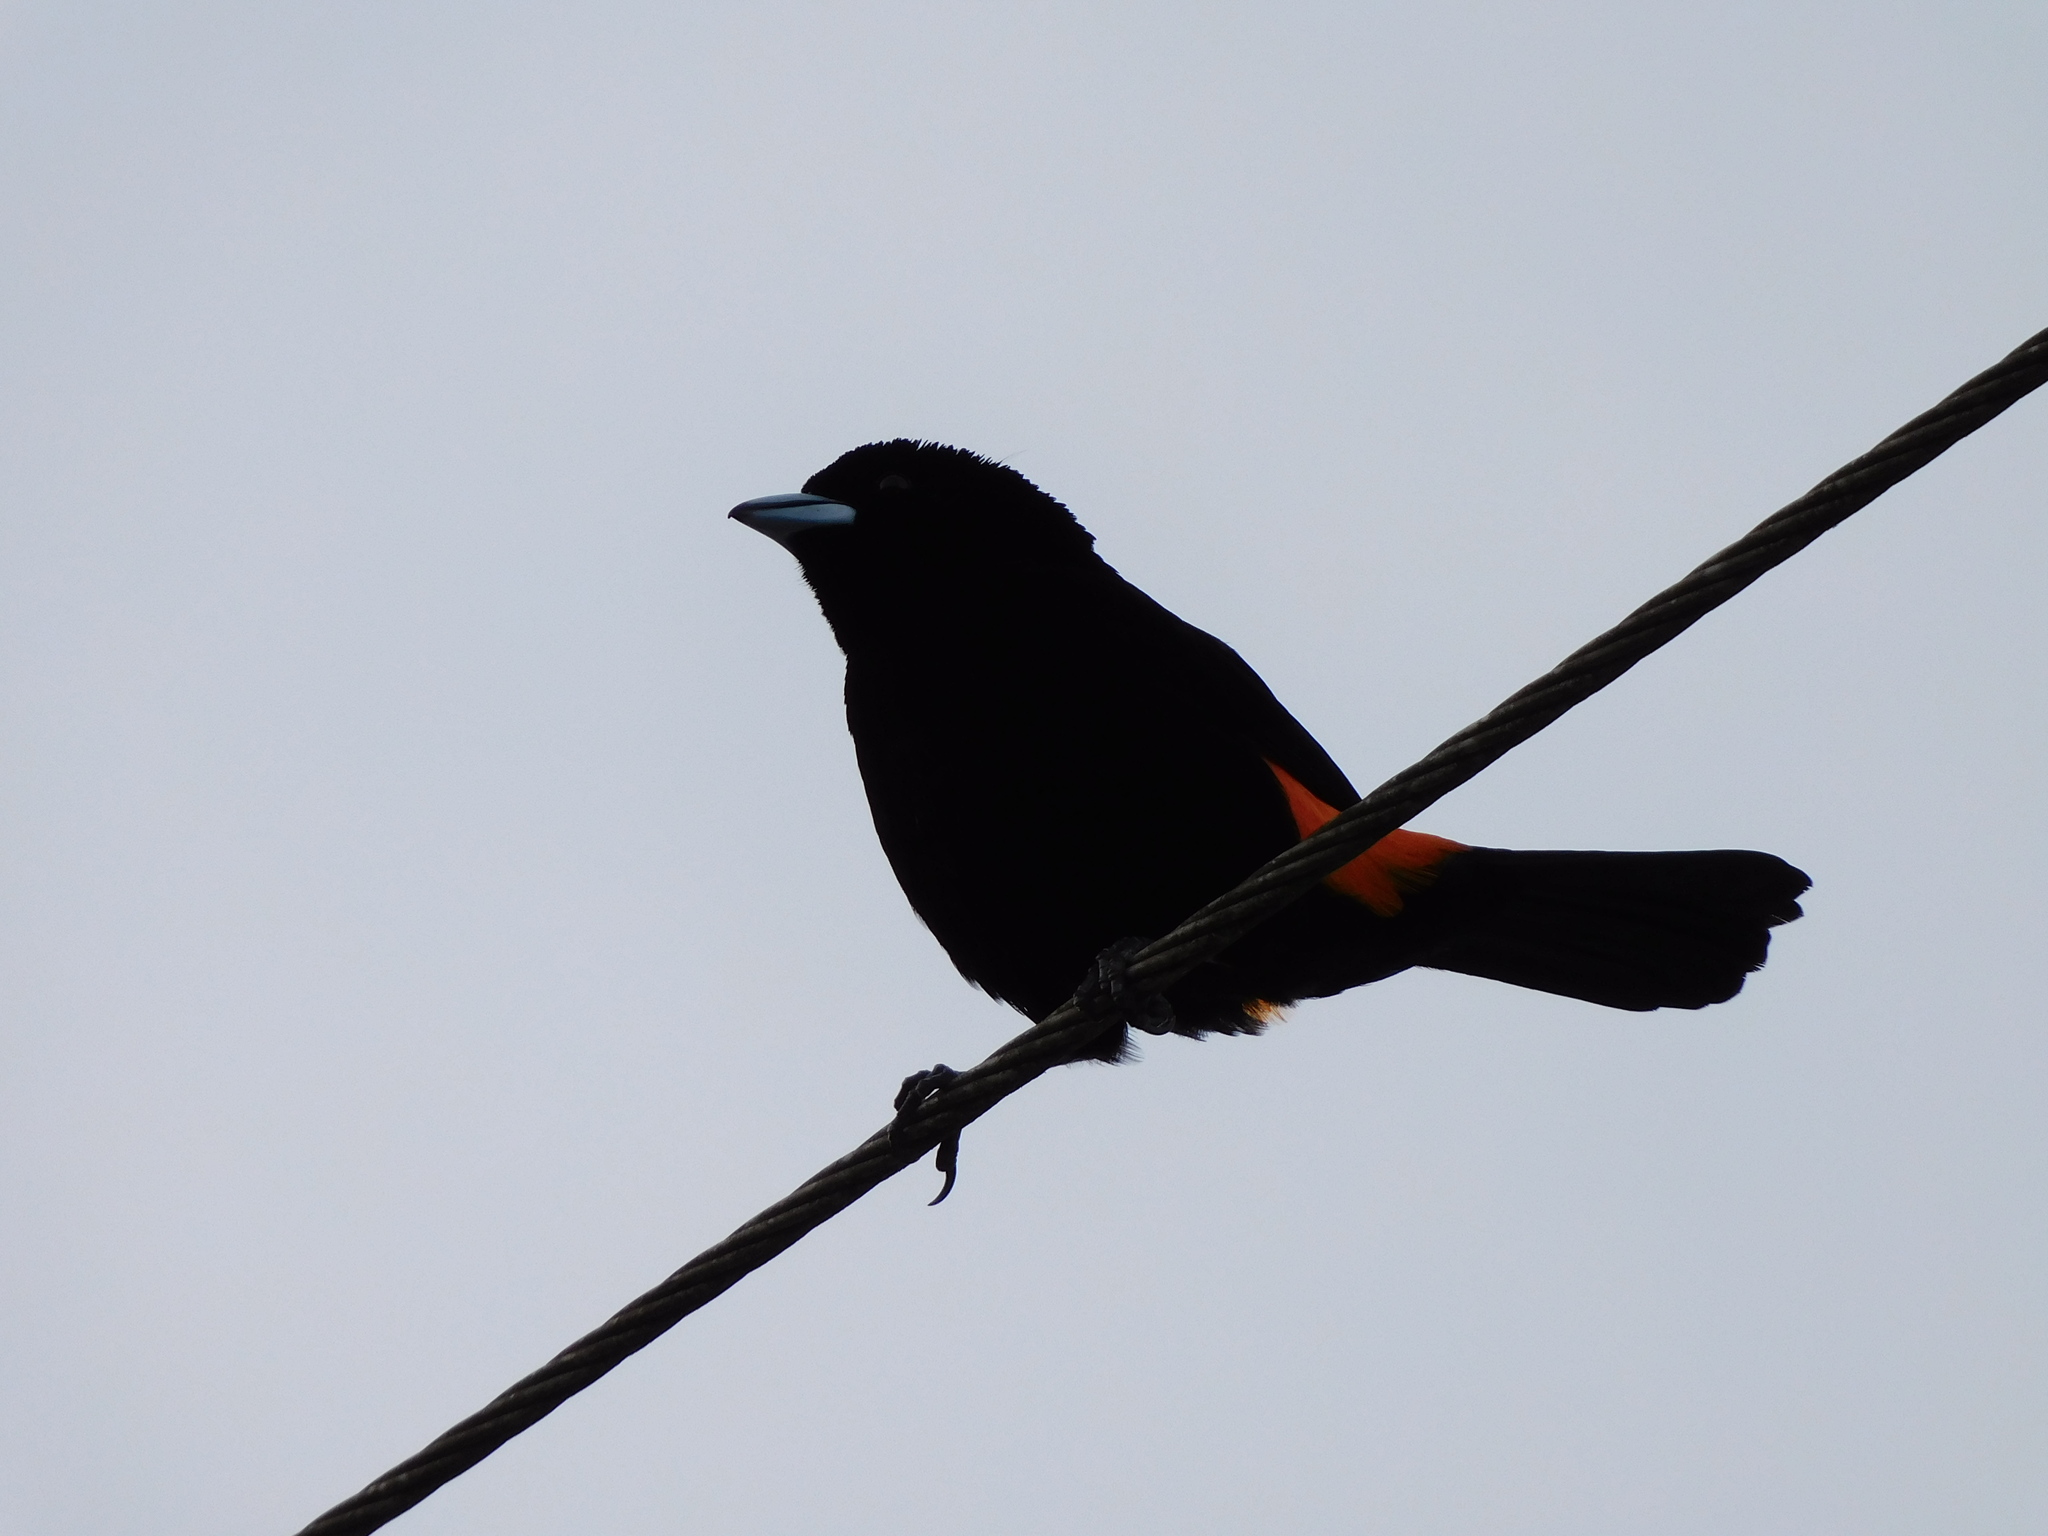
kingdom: Animalia
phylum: Chordata
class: Aves
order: Passeriformes
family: Thraupidae
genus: Ramphocelus
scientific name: Ramphocelus flammigerus
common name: Flame-rumped tanager
